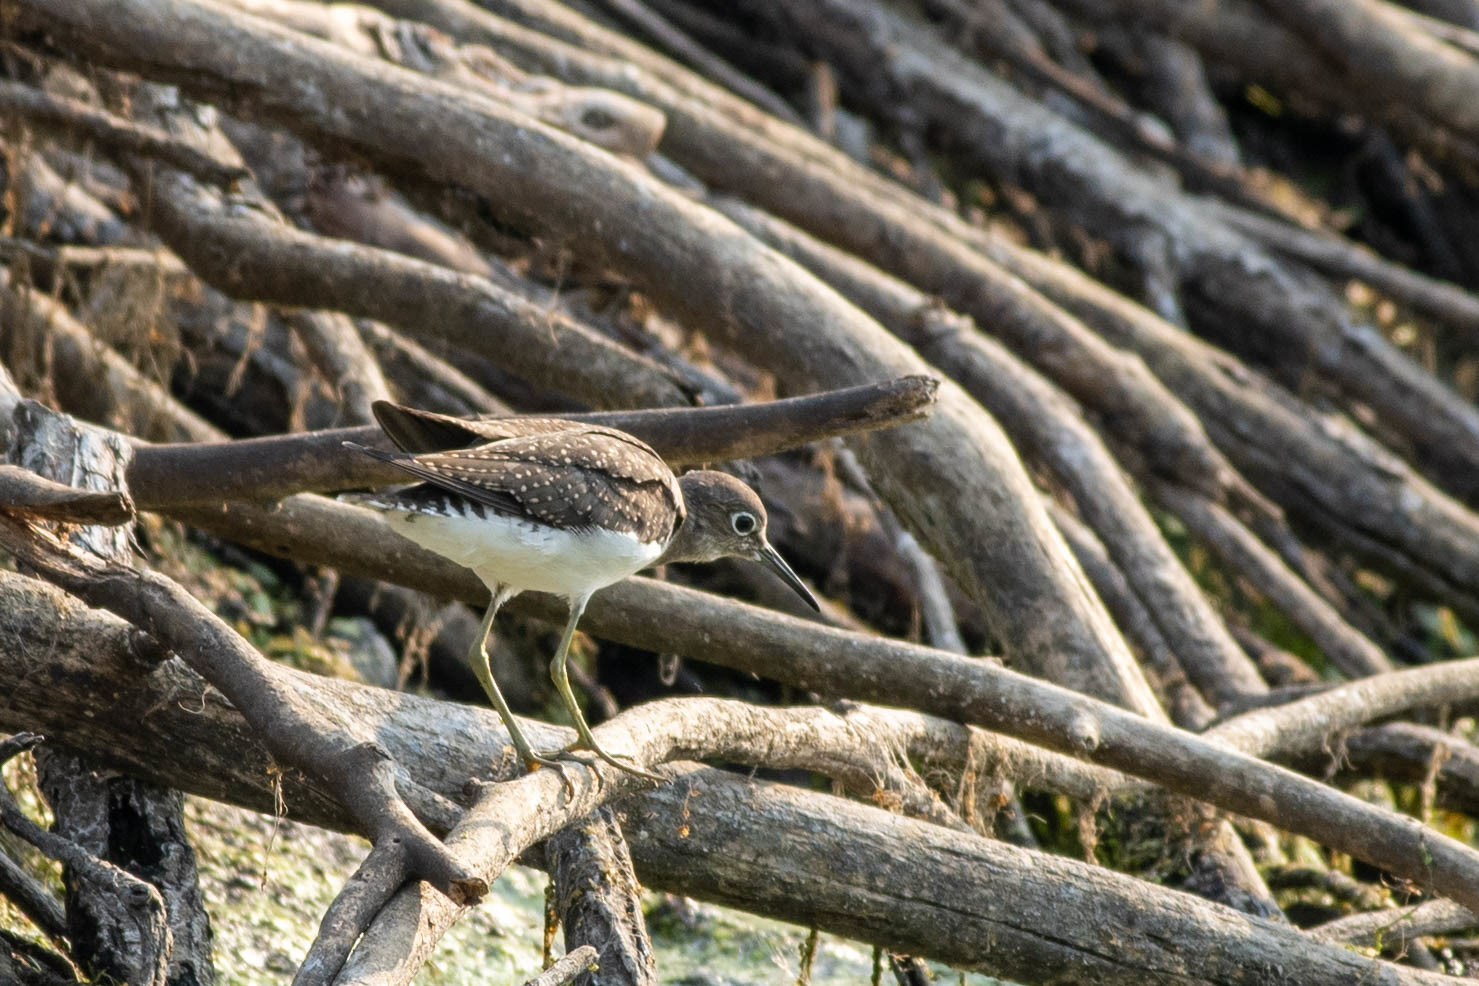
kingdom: Animalia
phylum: Chordata
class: Aves
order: Charadriiformes
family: Scolopacidae
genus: Tringa
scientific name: Tringa solitaria
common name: Solitary sandpiper
